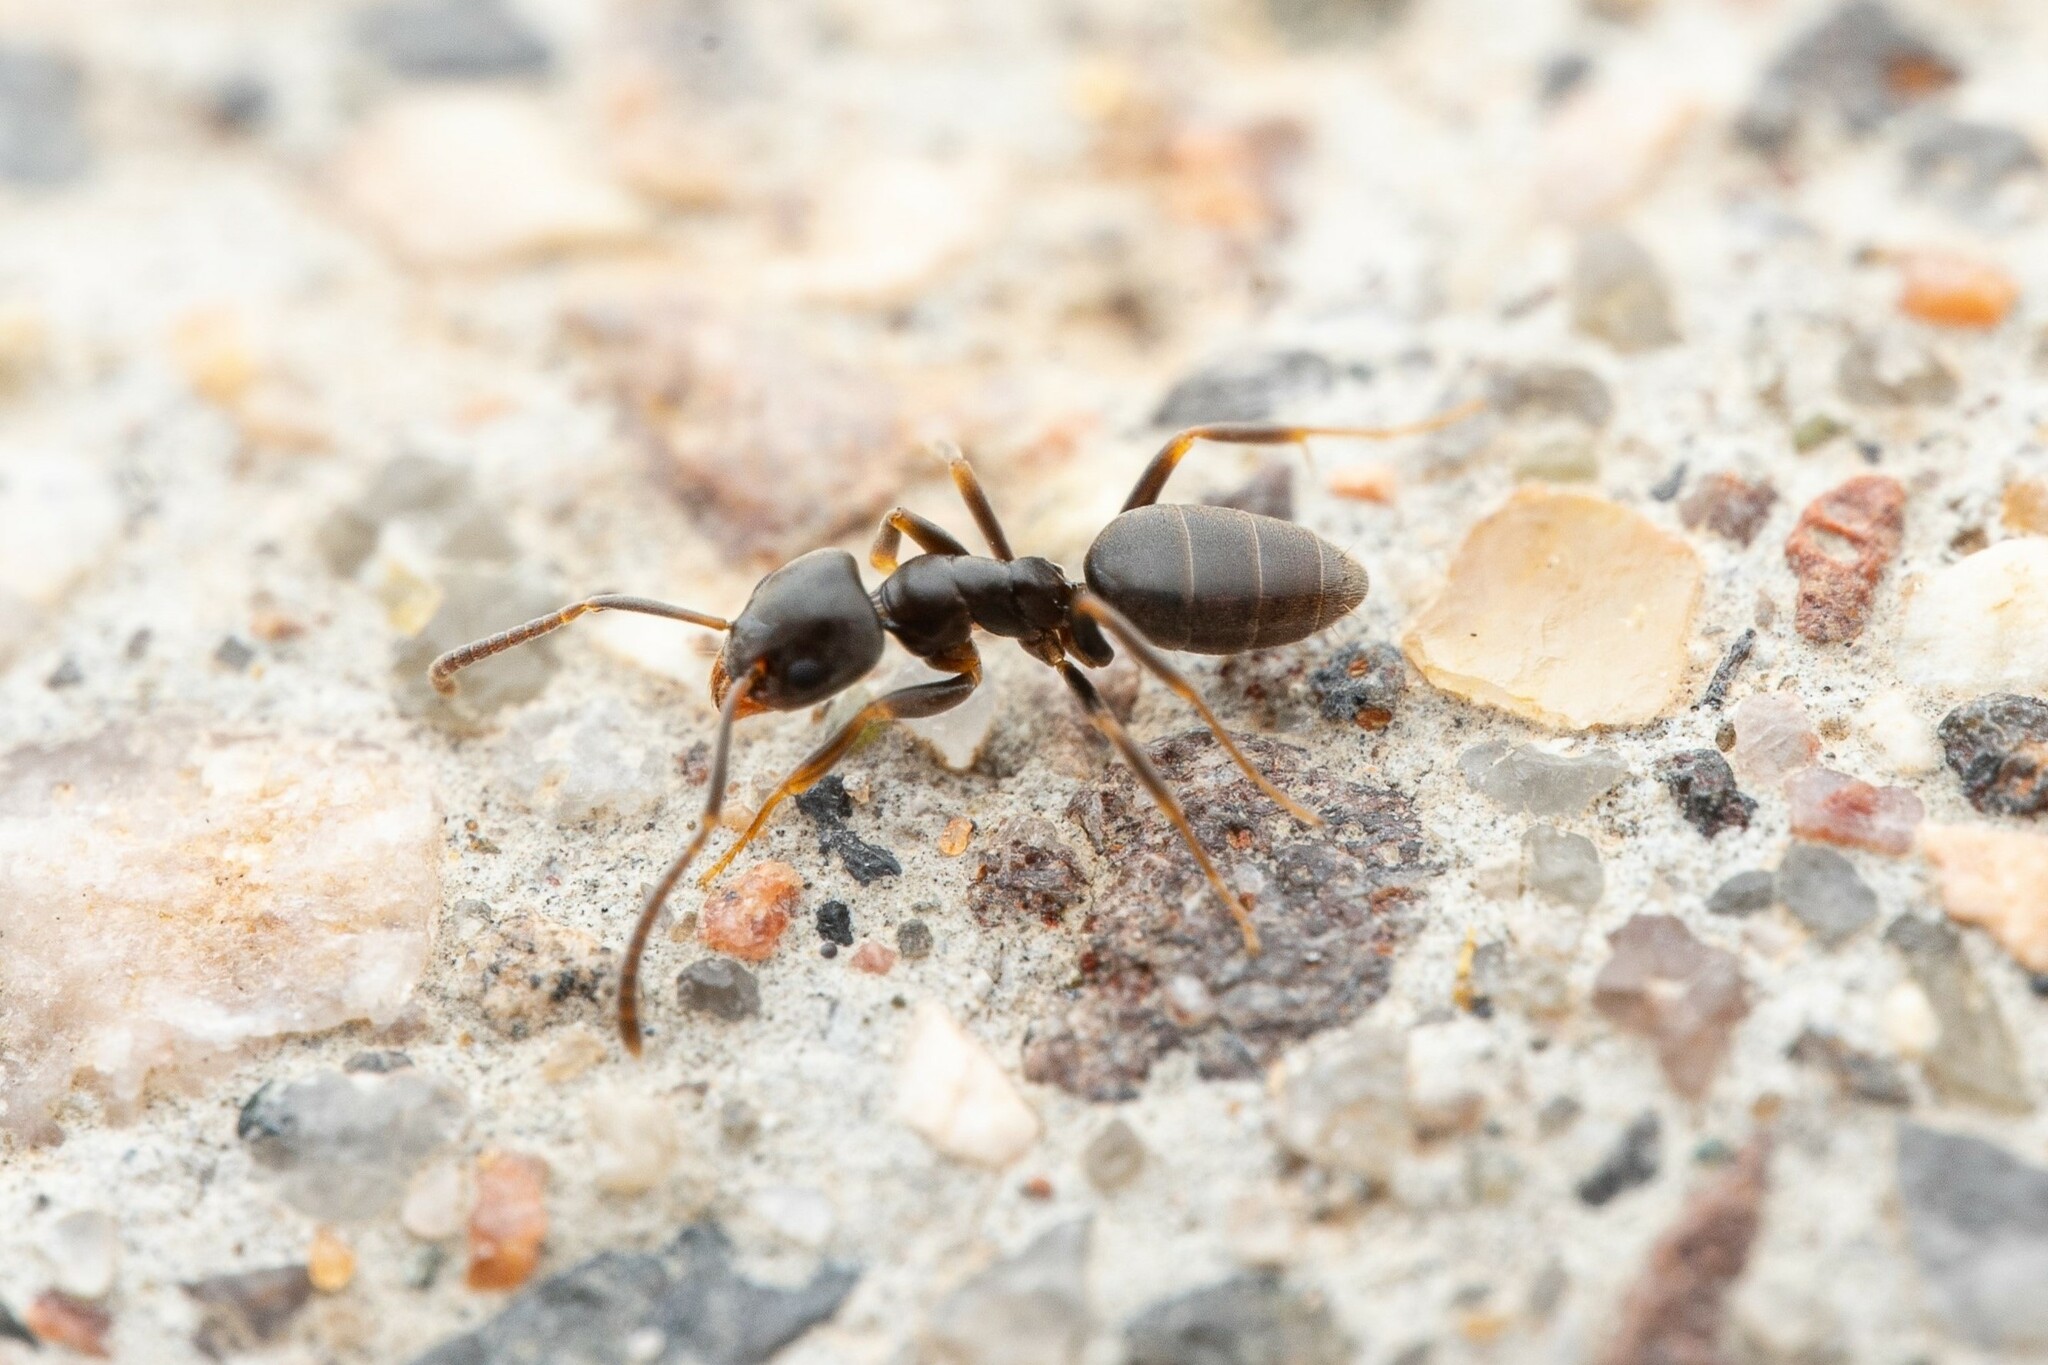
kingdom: Animalia
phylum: Arthropoda
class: Insecta
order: Hymenoptera
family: Formicidae
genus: Tapinoma
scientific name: Tapinoma sessile
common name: Odorous house ant
